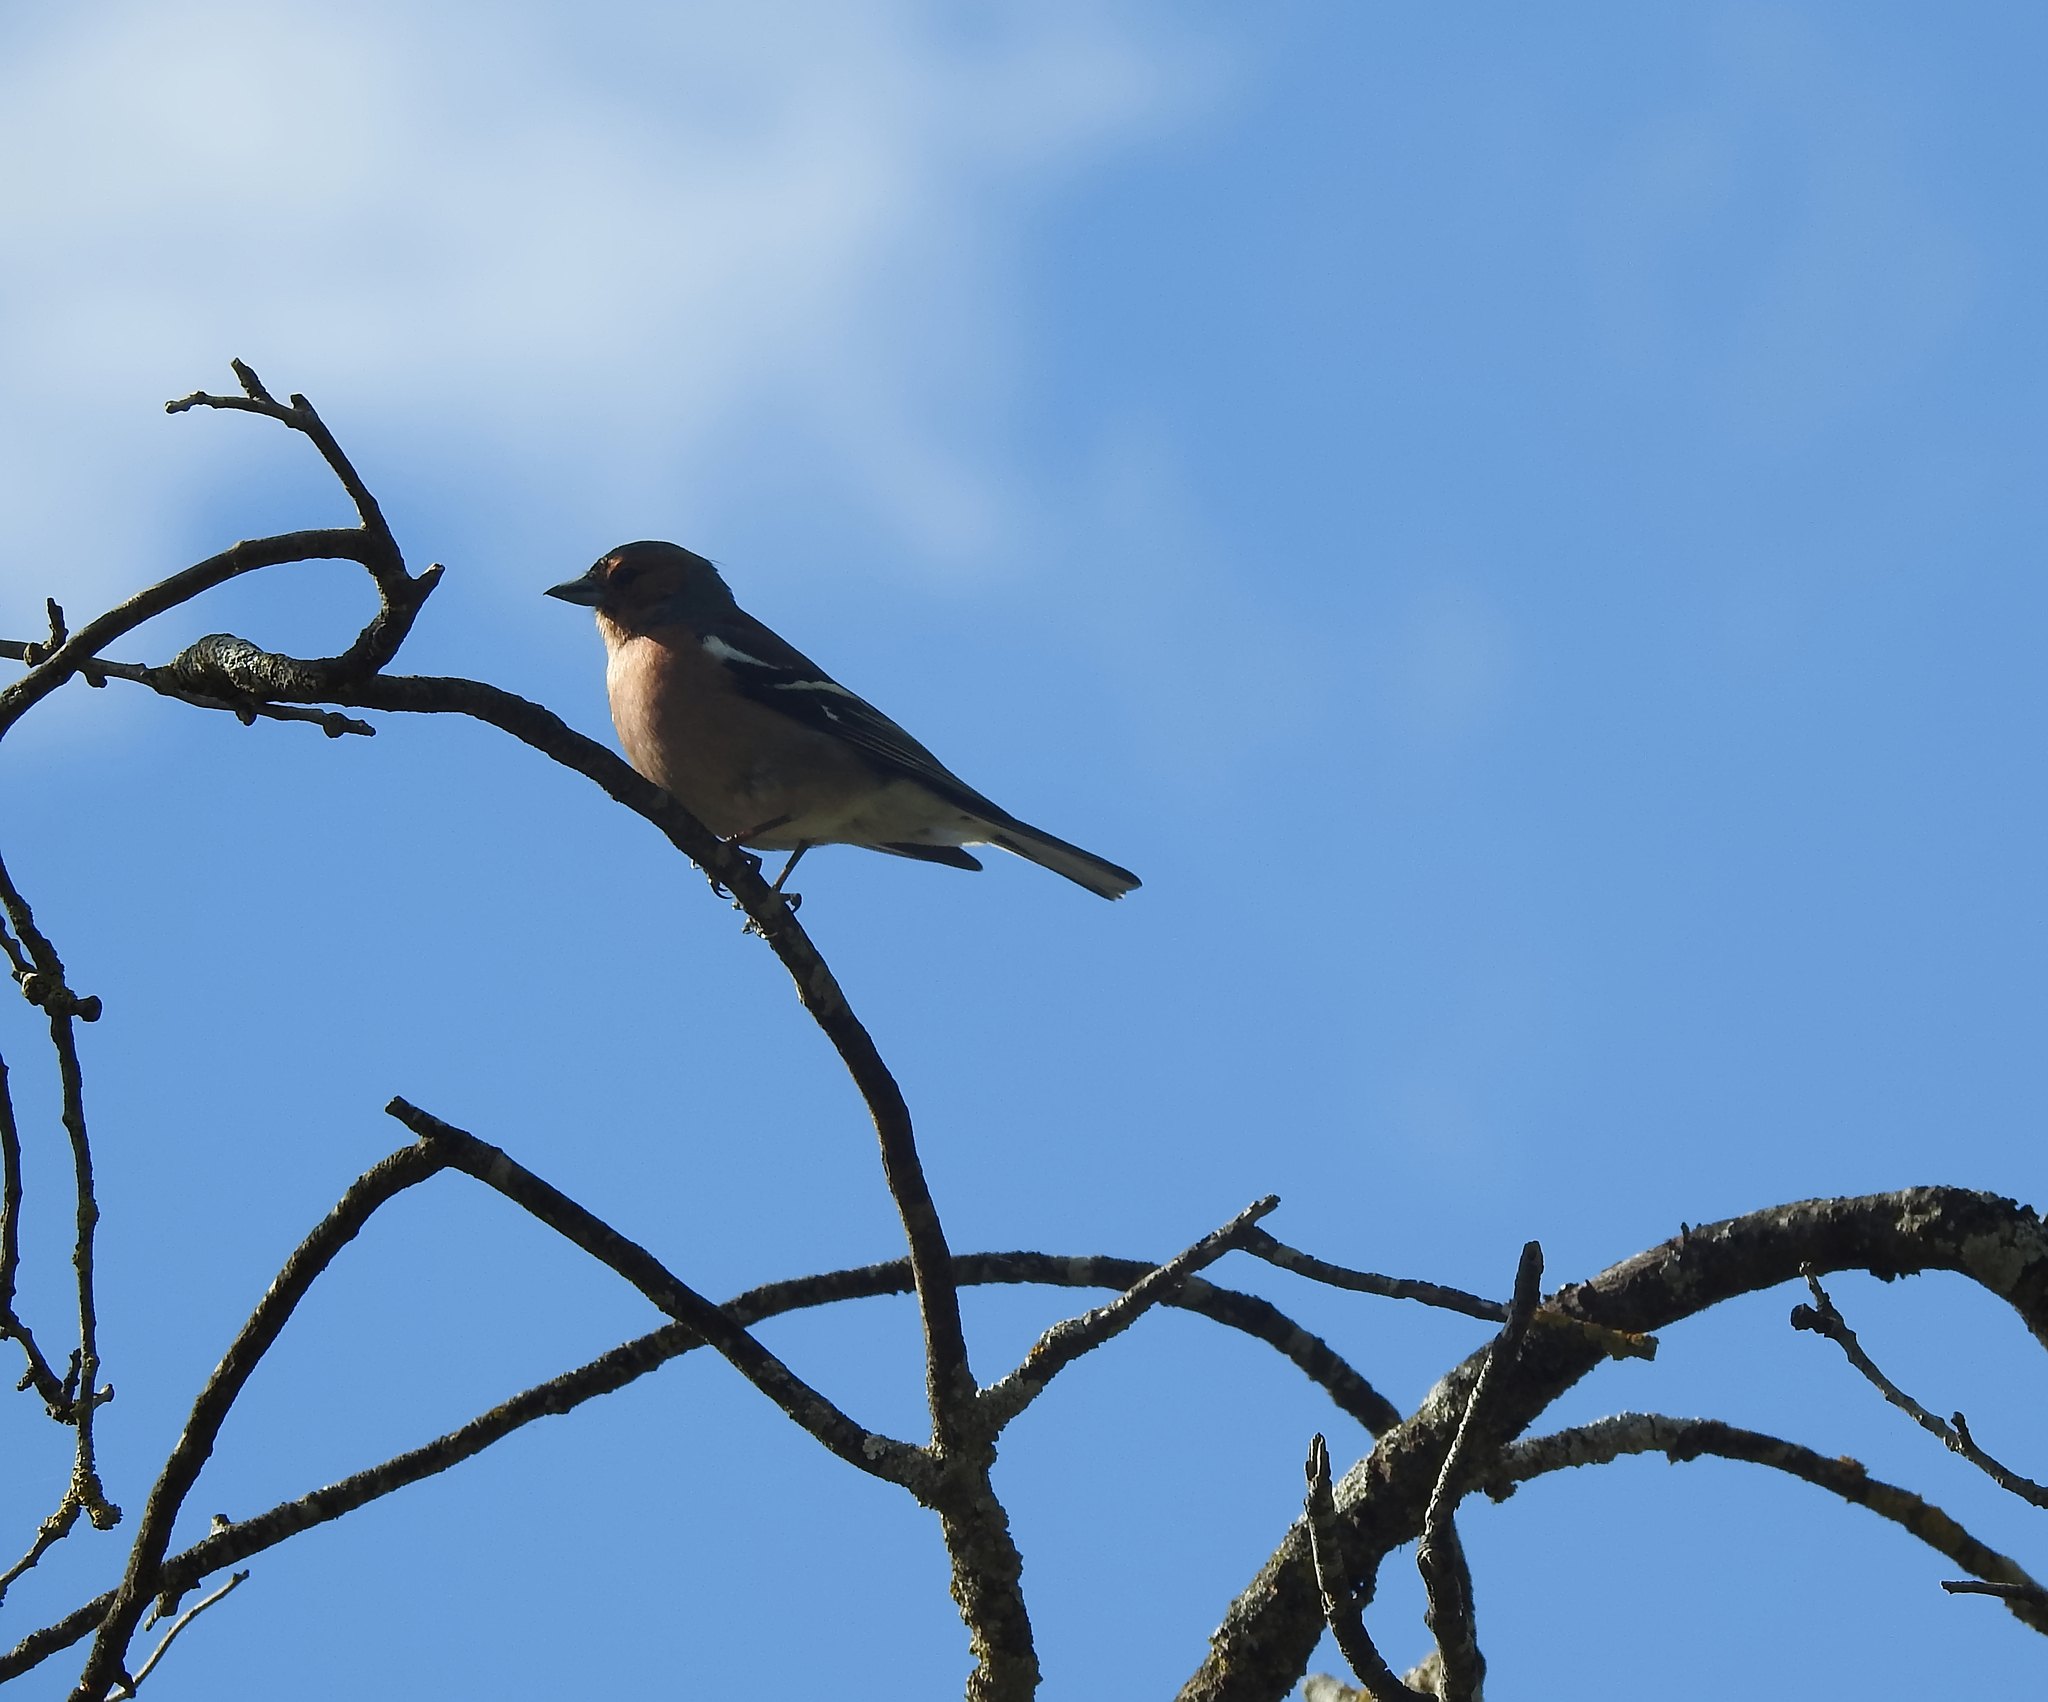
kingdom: Animalia
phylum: Chordata
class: Aves
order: Passeriformes
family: Fringillidae
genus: Fringilla
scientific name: Fringilla coelebs
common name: Common chaffinch
